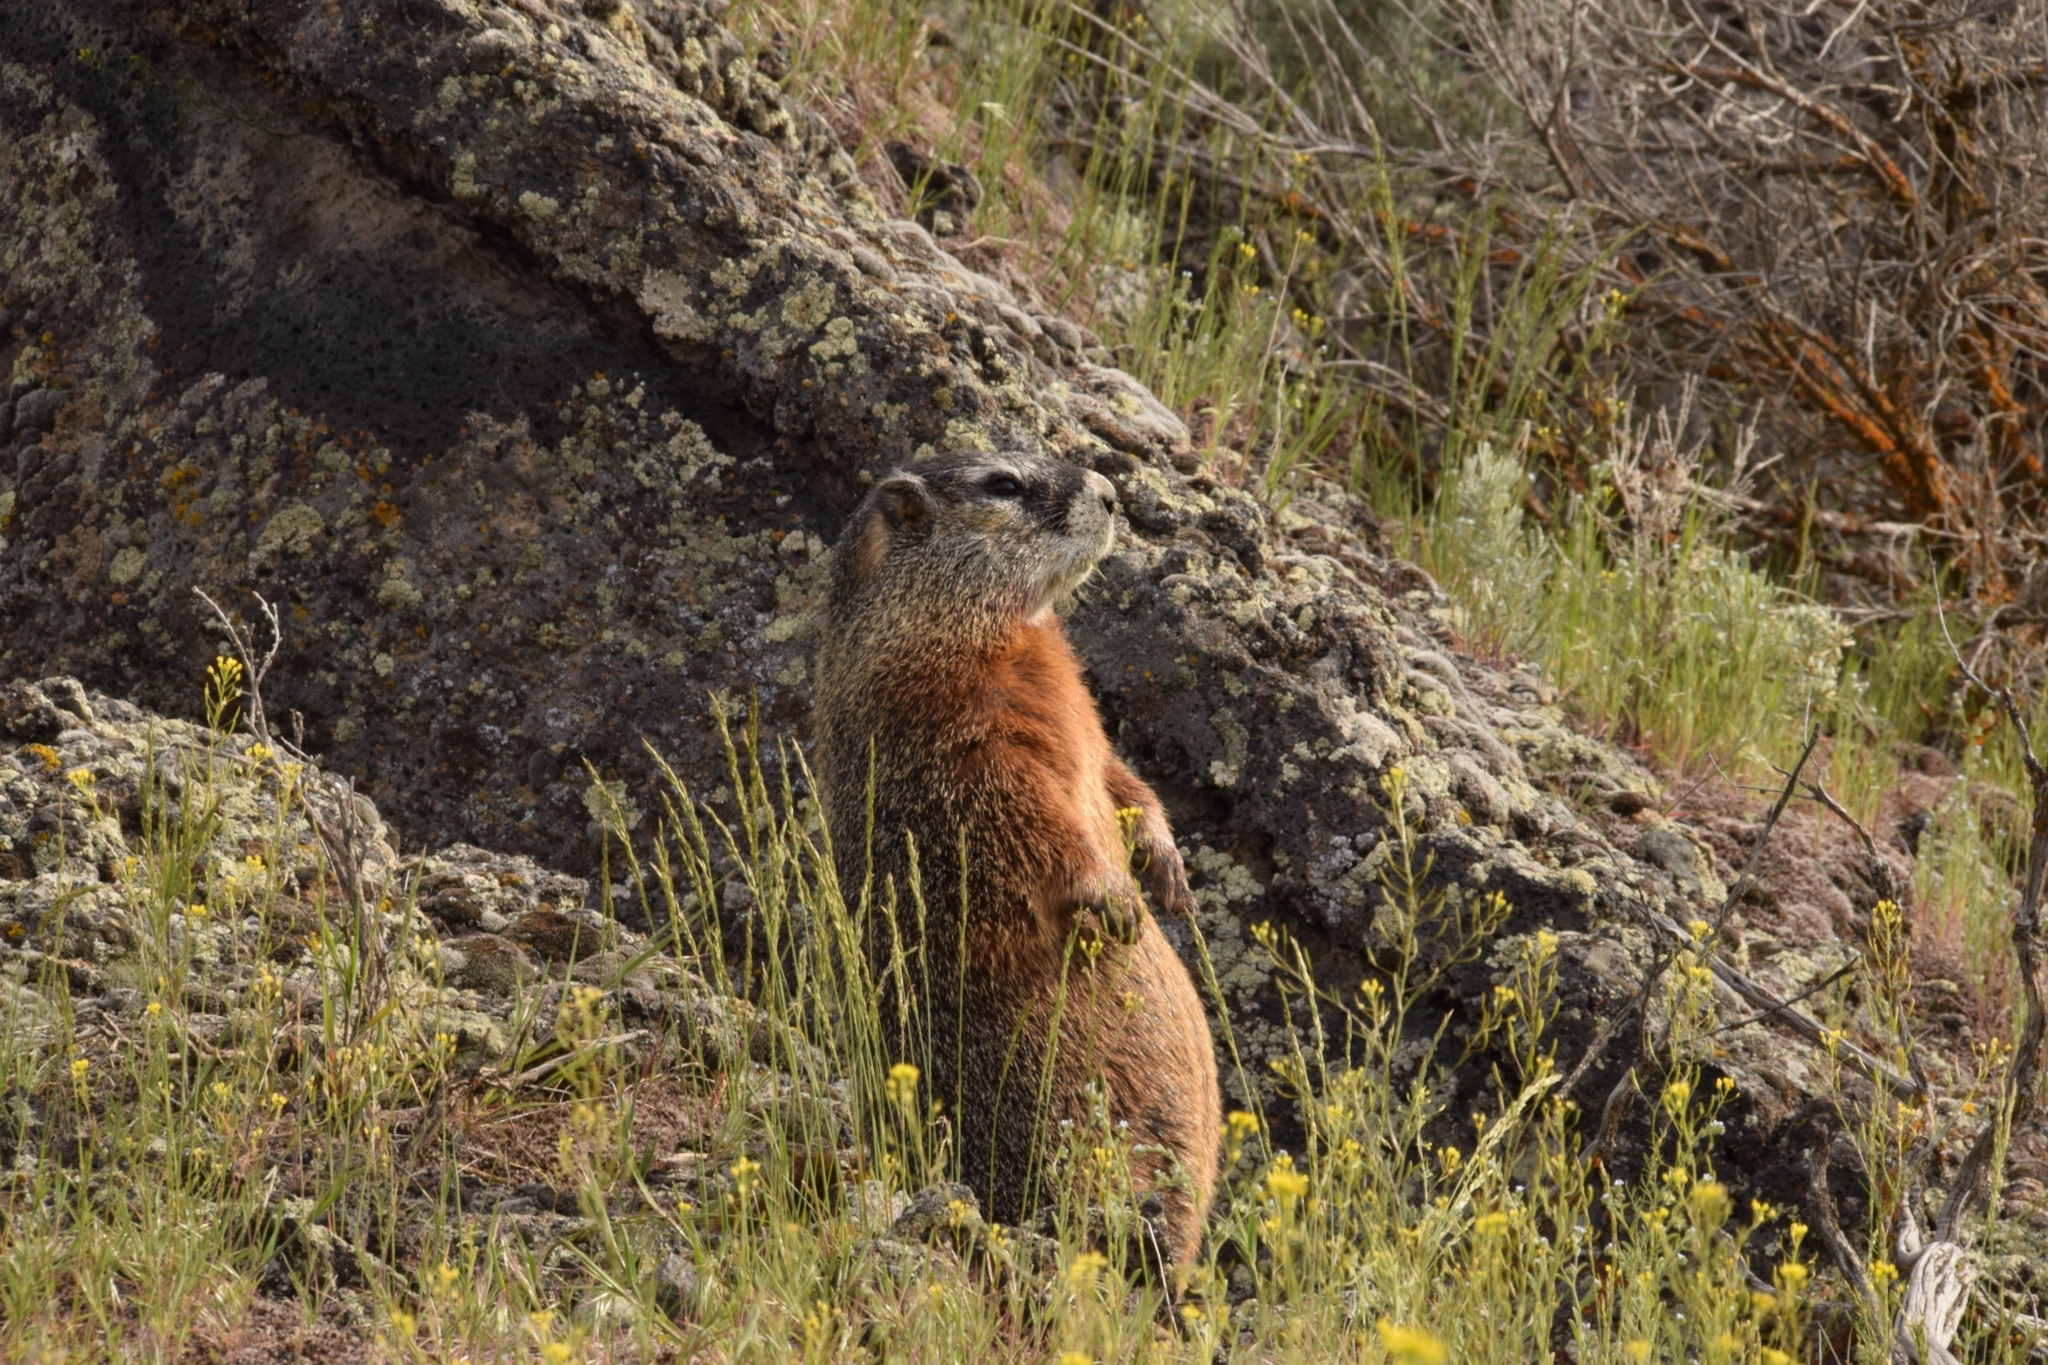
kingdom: Animalia
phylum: Chordata
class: Mammalia
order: Rodentia
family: Sciuridae
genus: Marmota
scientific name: Marmota flaviventris
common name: Yellow-bellied marmot
